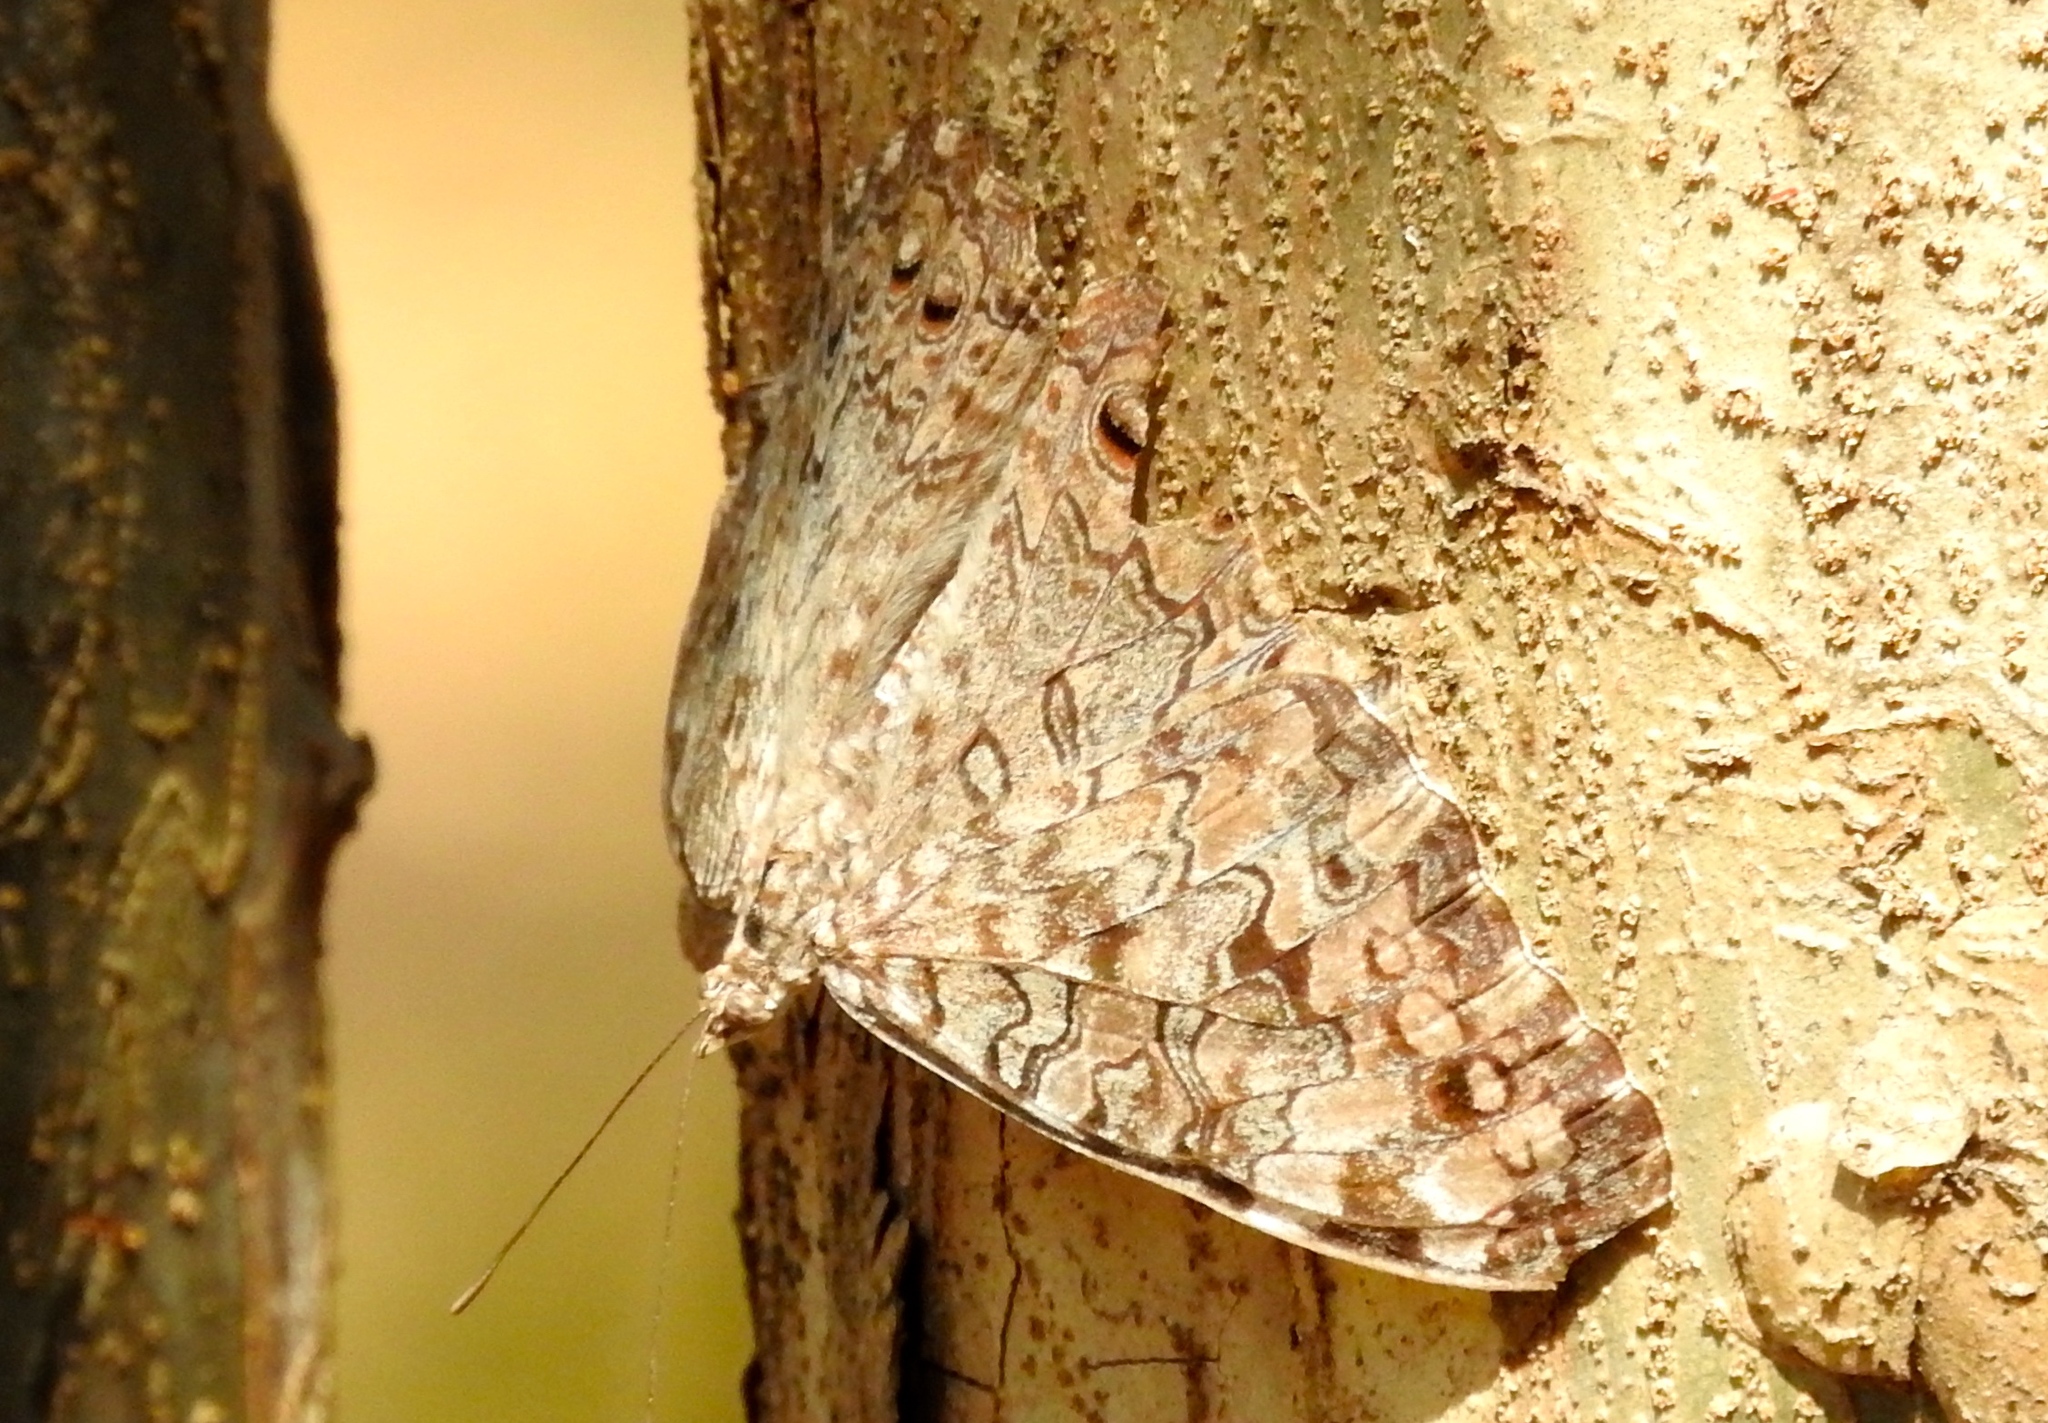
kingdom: Animalia
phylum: Arthropoda
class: Insecta
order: Lepidoptera
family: Nymphalidae
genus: Hamadryas
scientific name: Hamadryas februa
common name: Gray cracker
